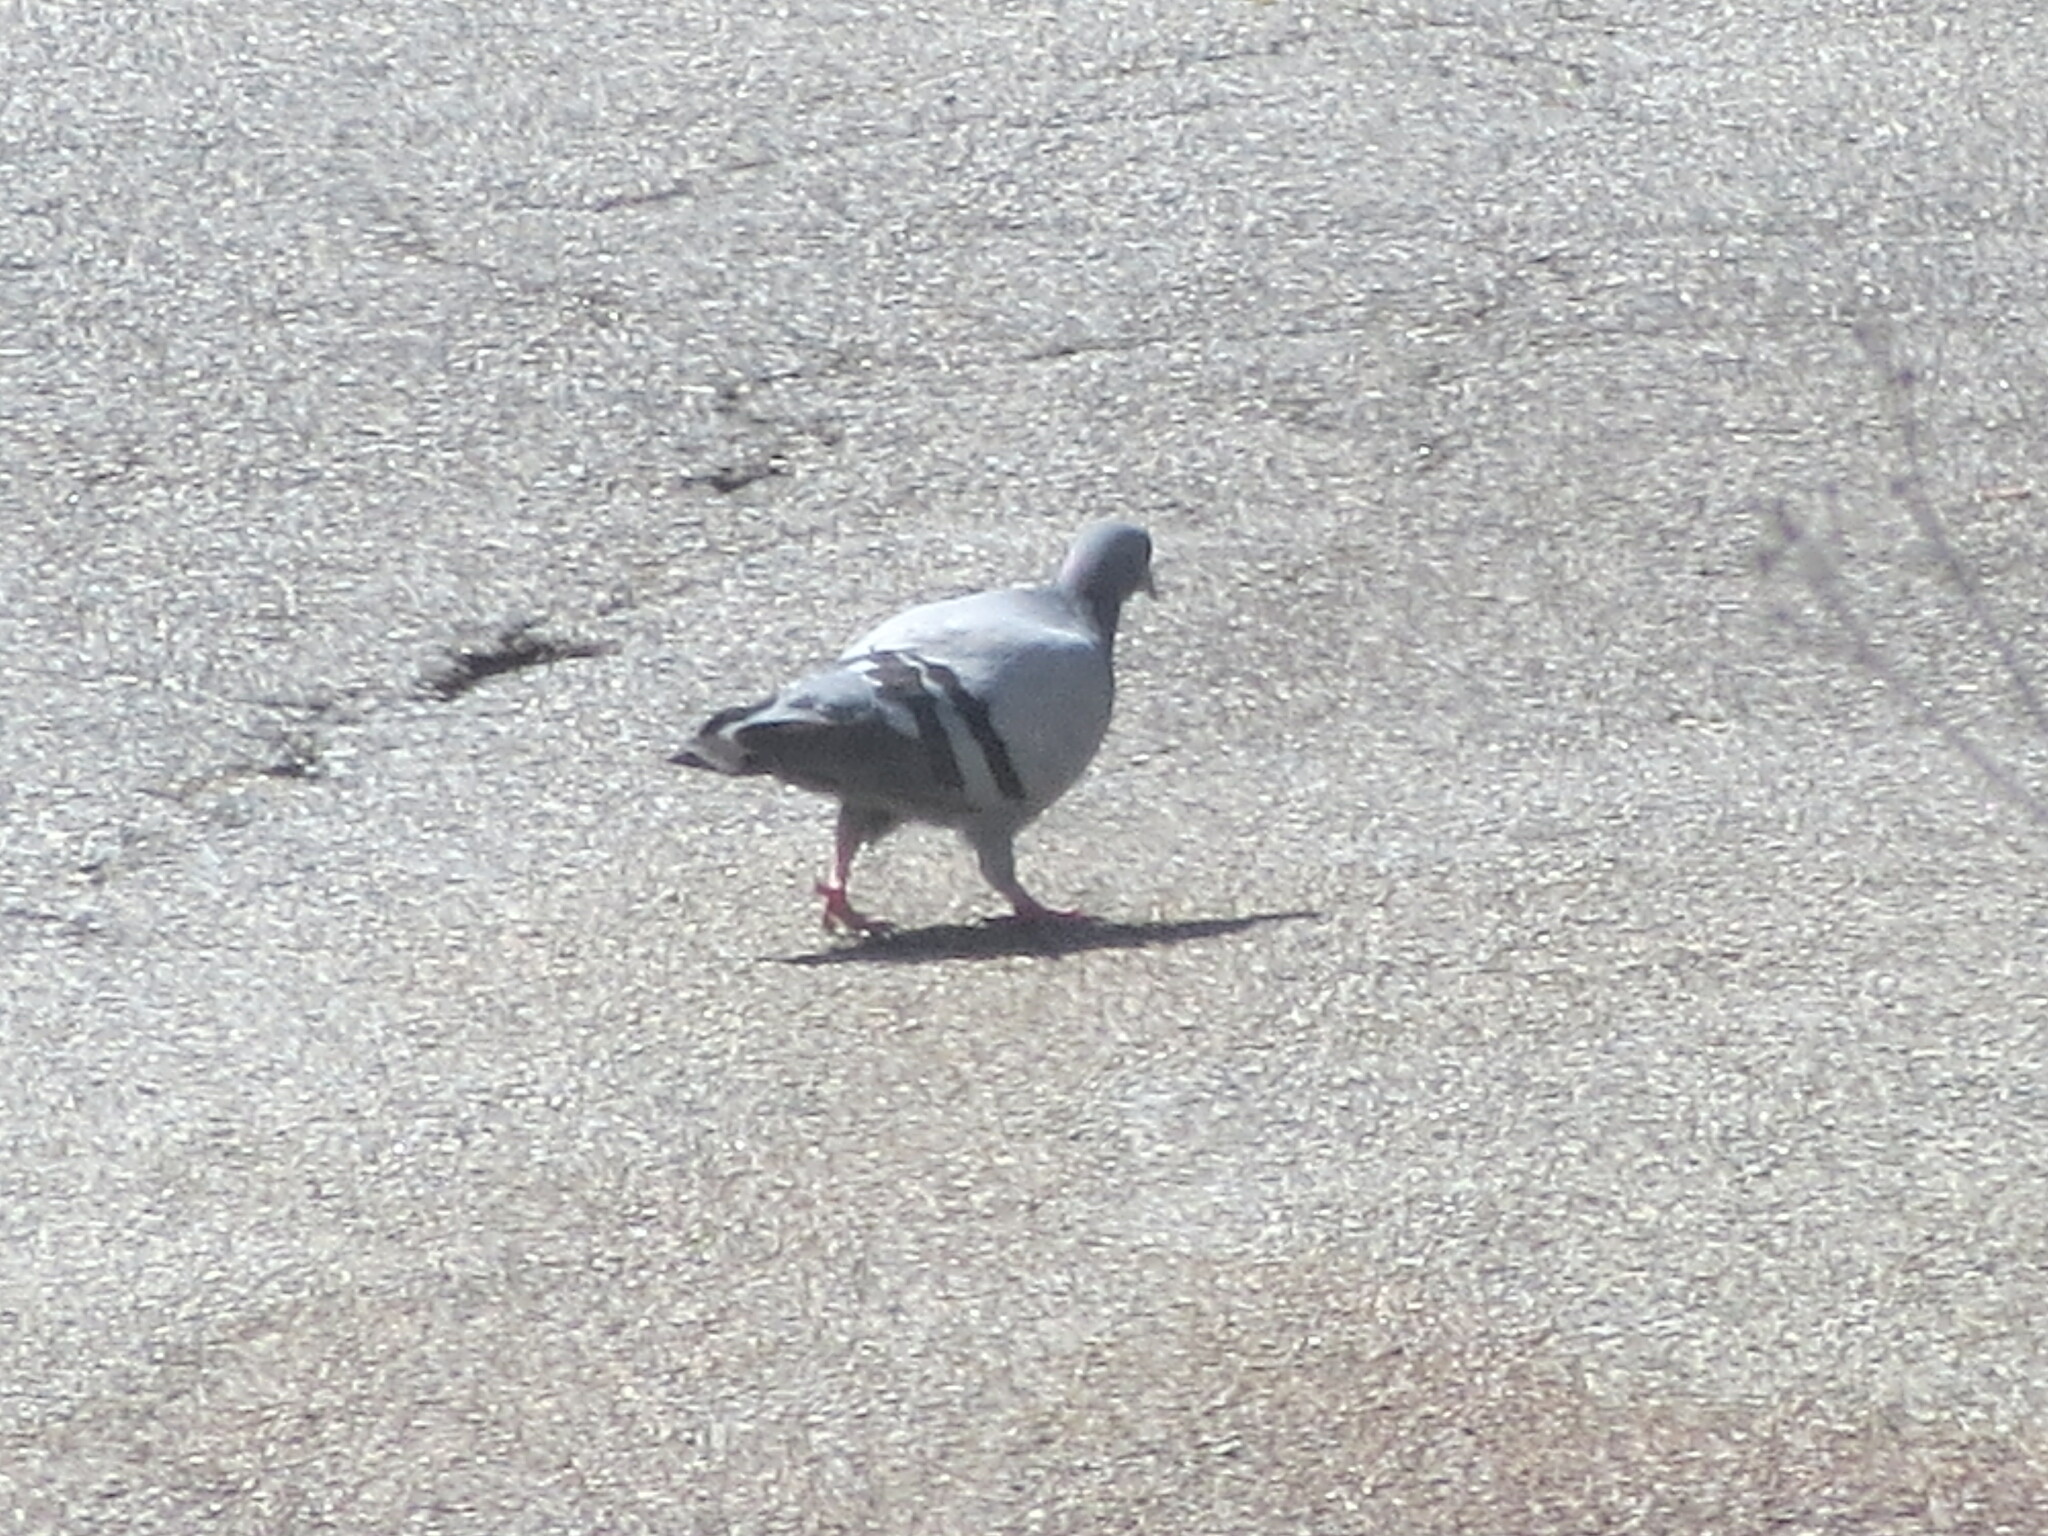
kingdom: Animalia
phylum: Chordata
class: Aves
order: Columbiformes
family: Columbidae
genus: Columba
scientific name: Columba livia
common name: Rock pigeon
